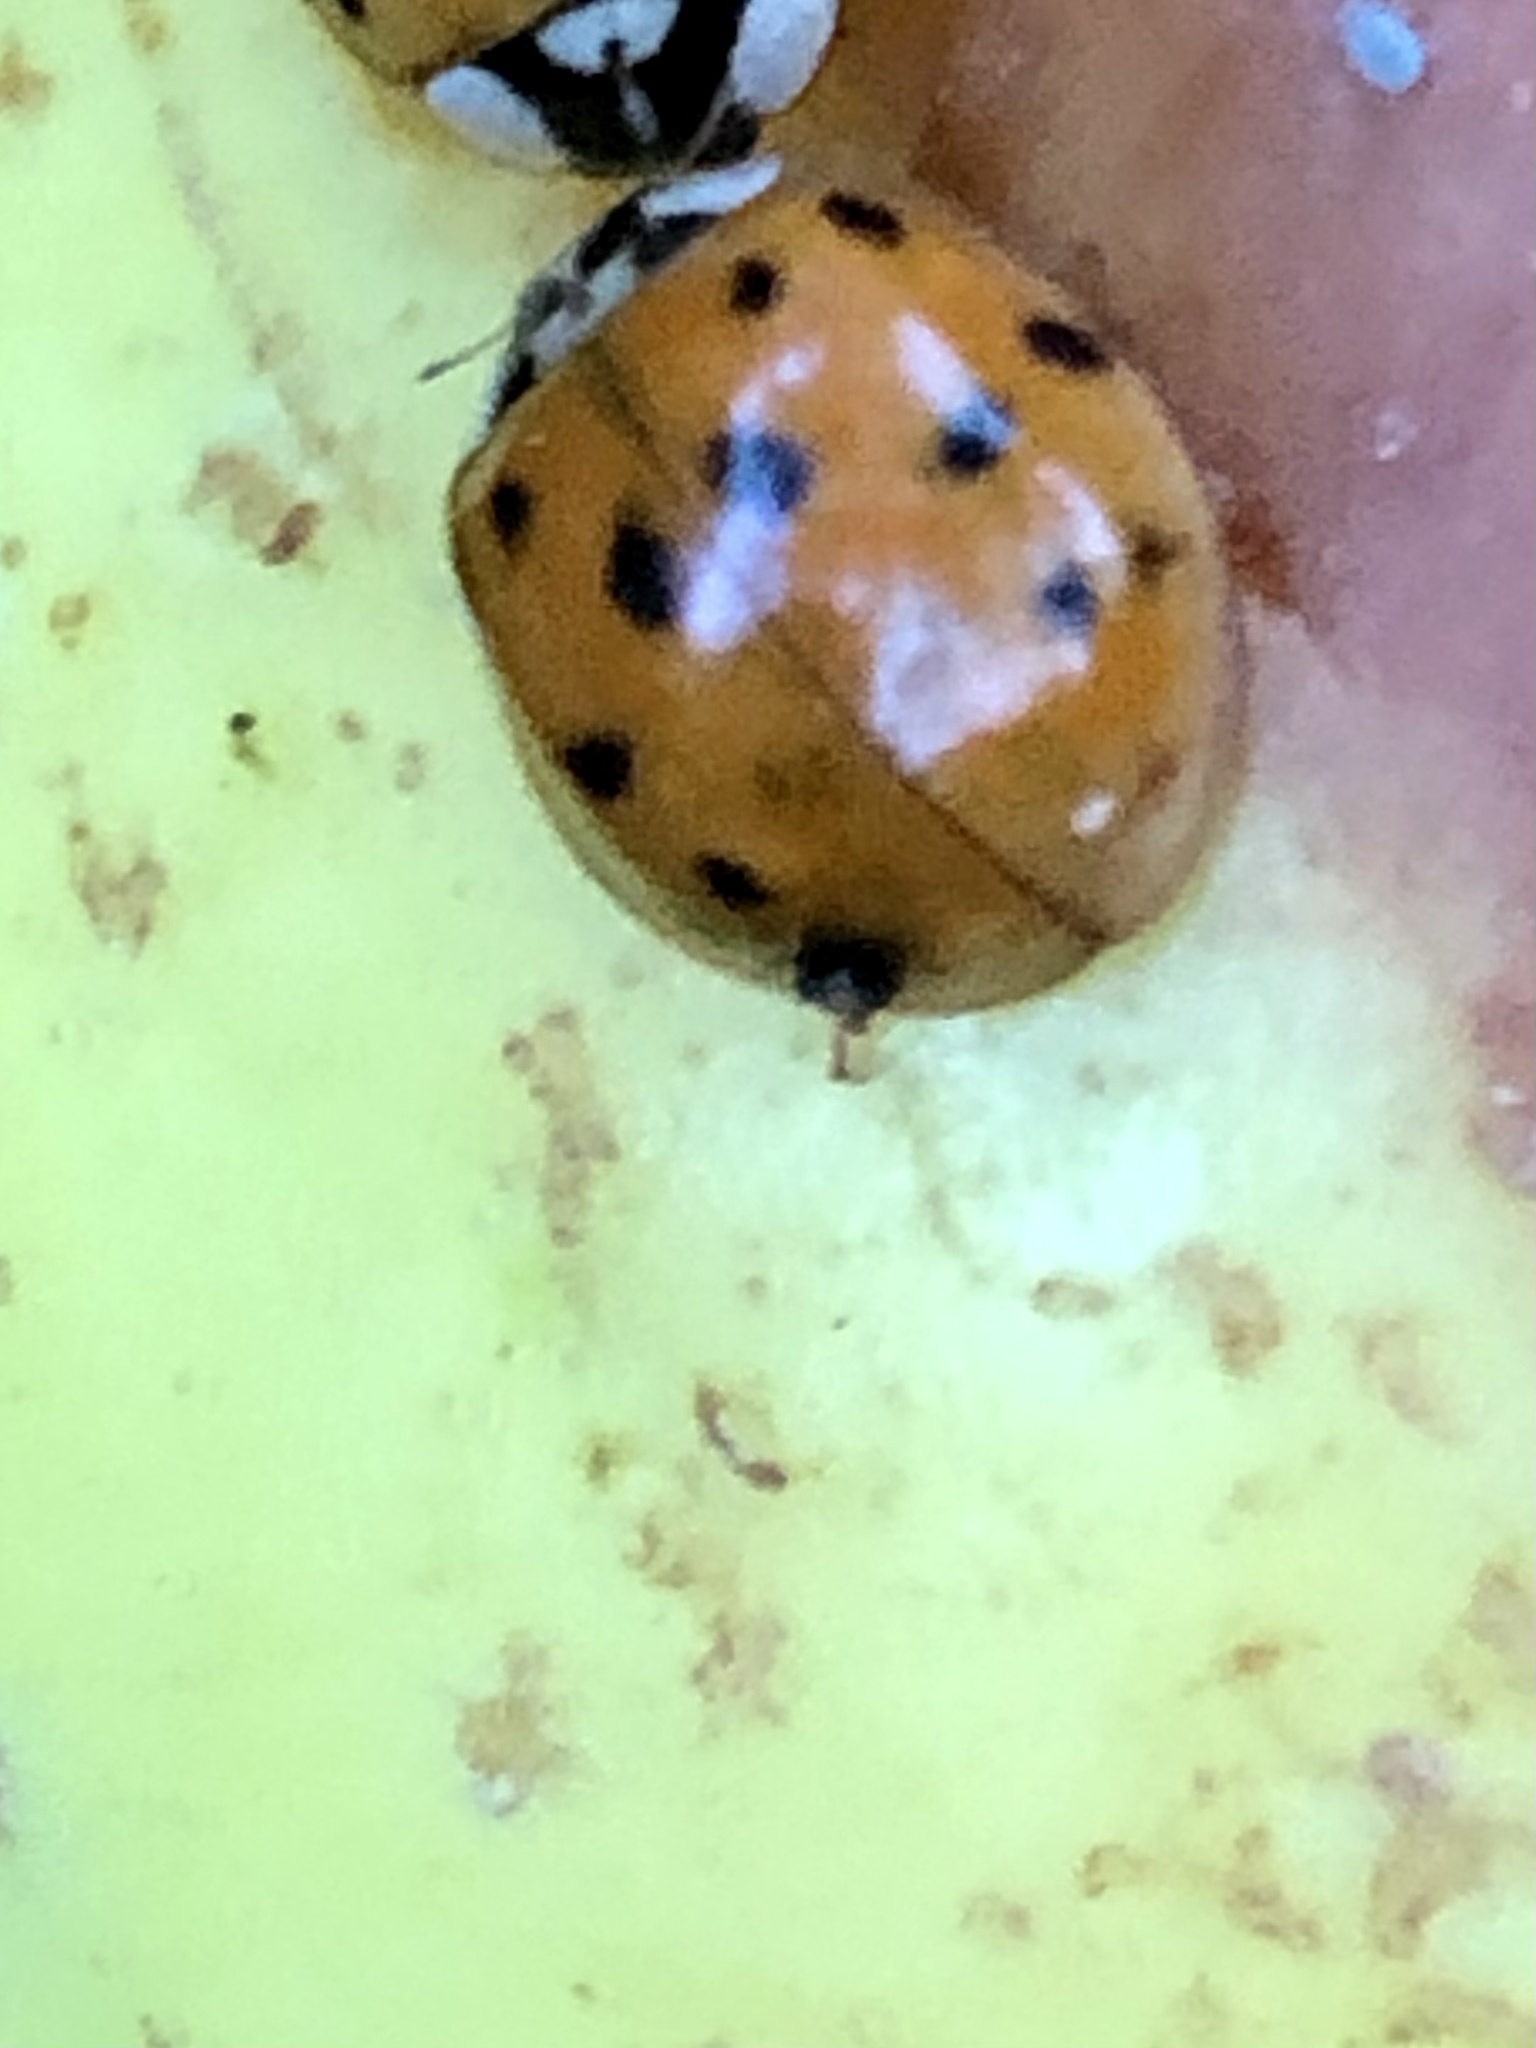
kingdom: Animalia
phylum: Arthropoda
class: Insecta
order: Coleoptera
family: Coccinellidae
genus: Harmonia
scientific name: Harmonia axyridis
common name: Harlequin ladybird
